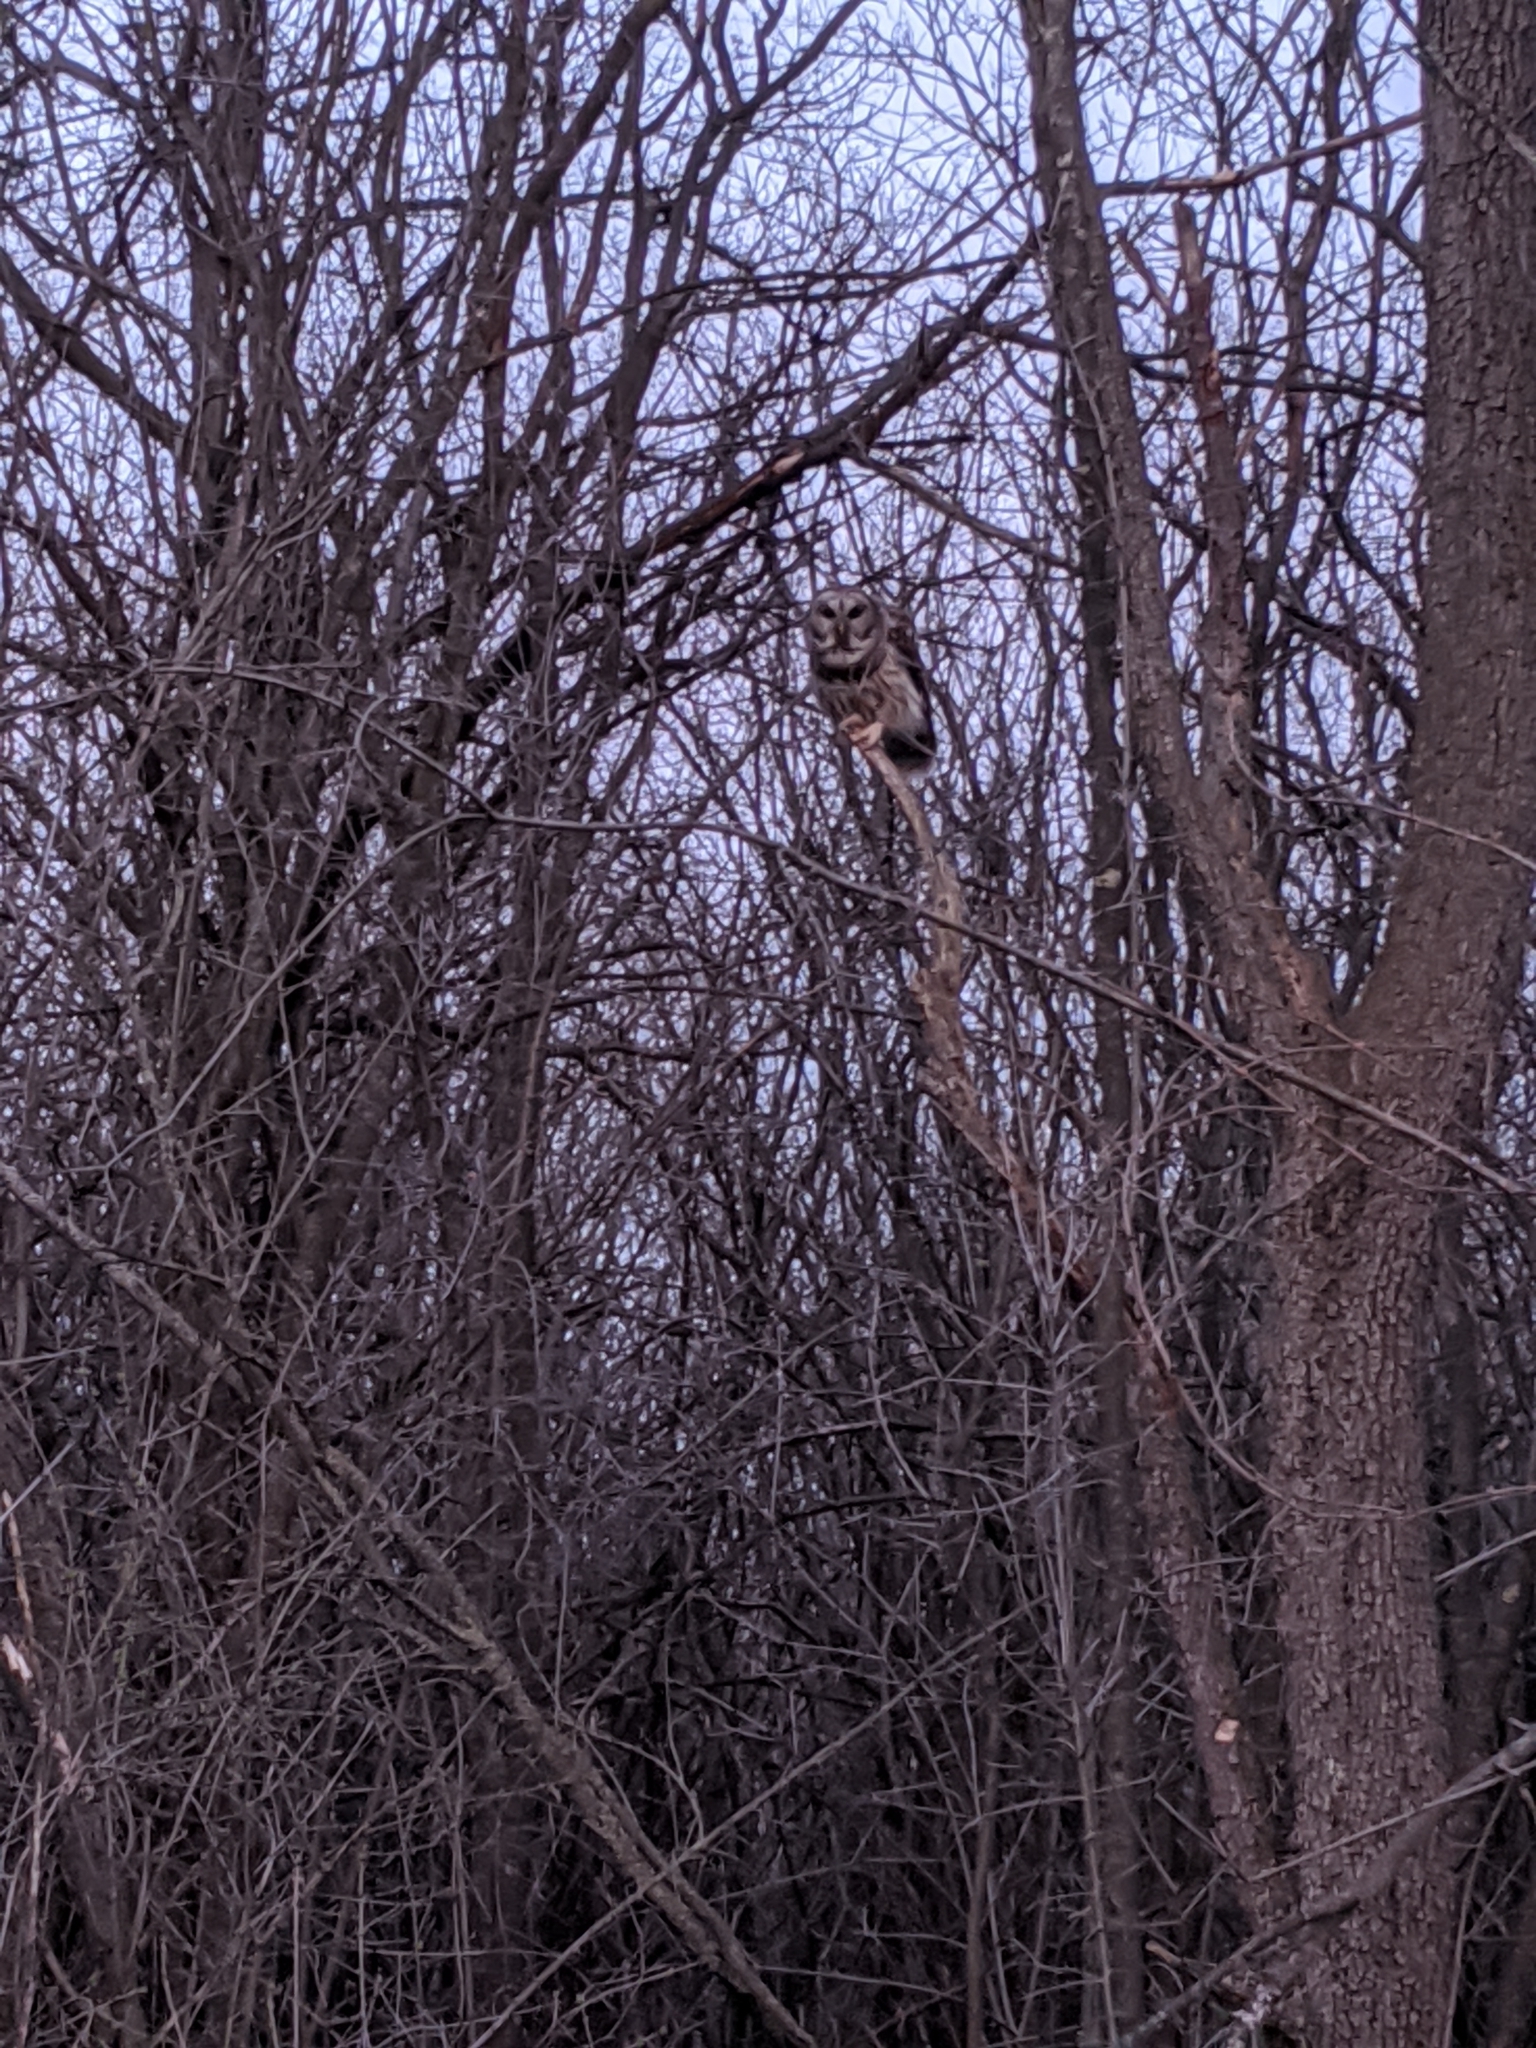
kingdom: Animalia
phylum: Chordata
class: Aves
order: Strigiformes
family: Strigidae
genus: Strix
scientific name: Strix varia
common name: Barred owl
